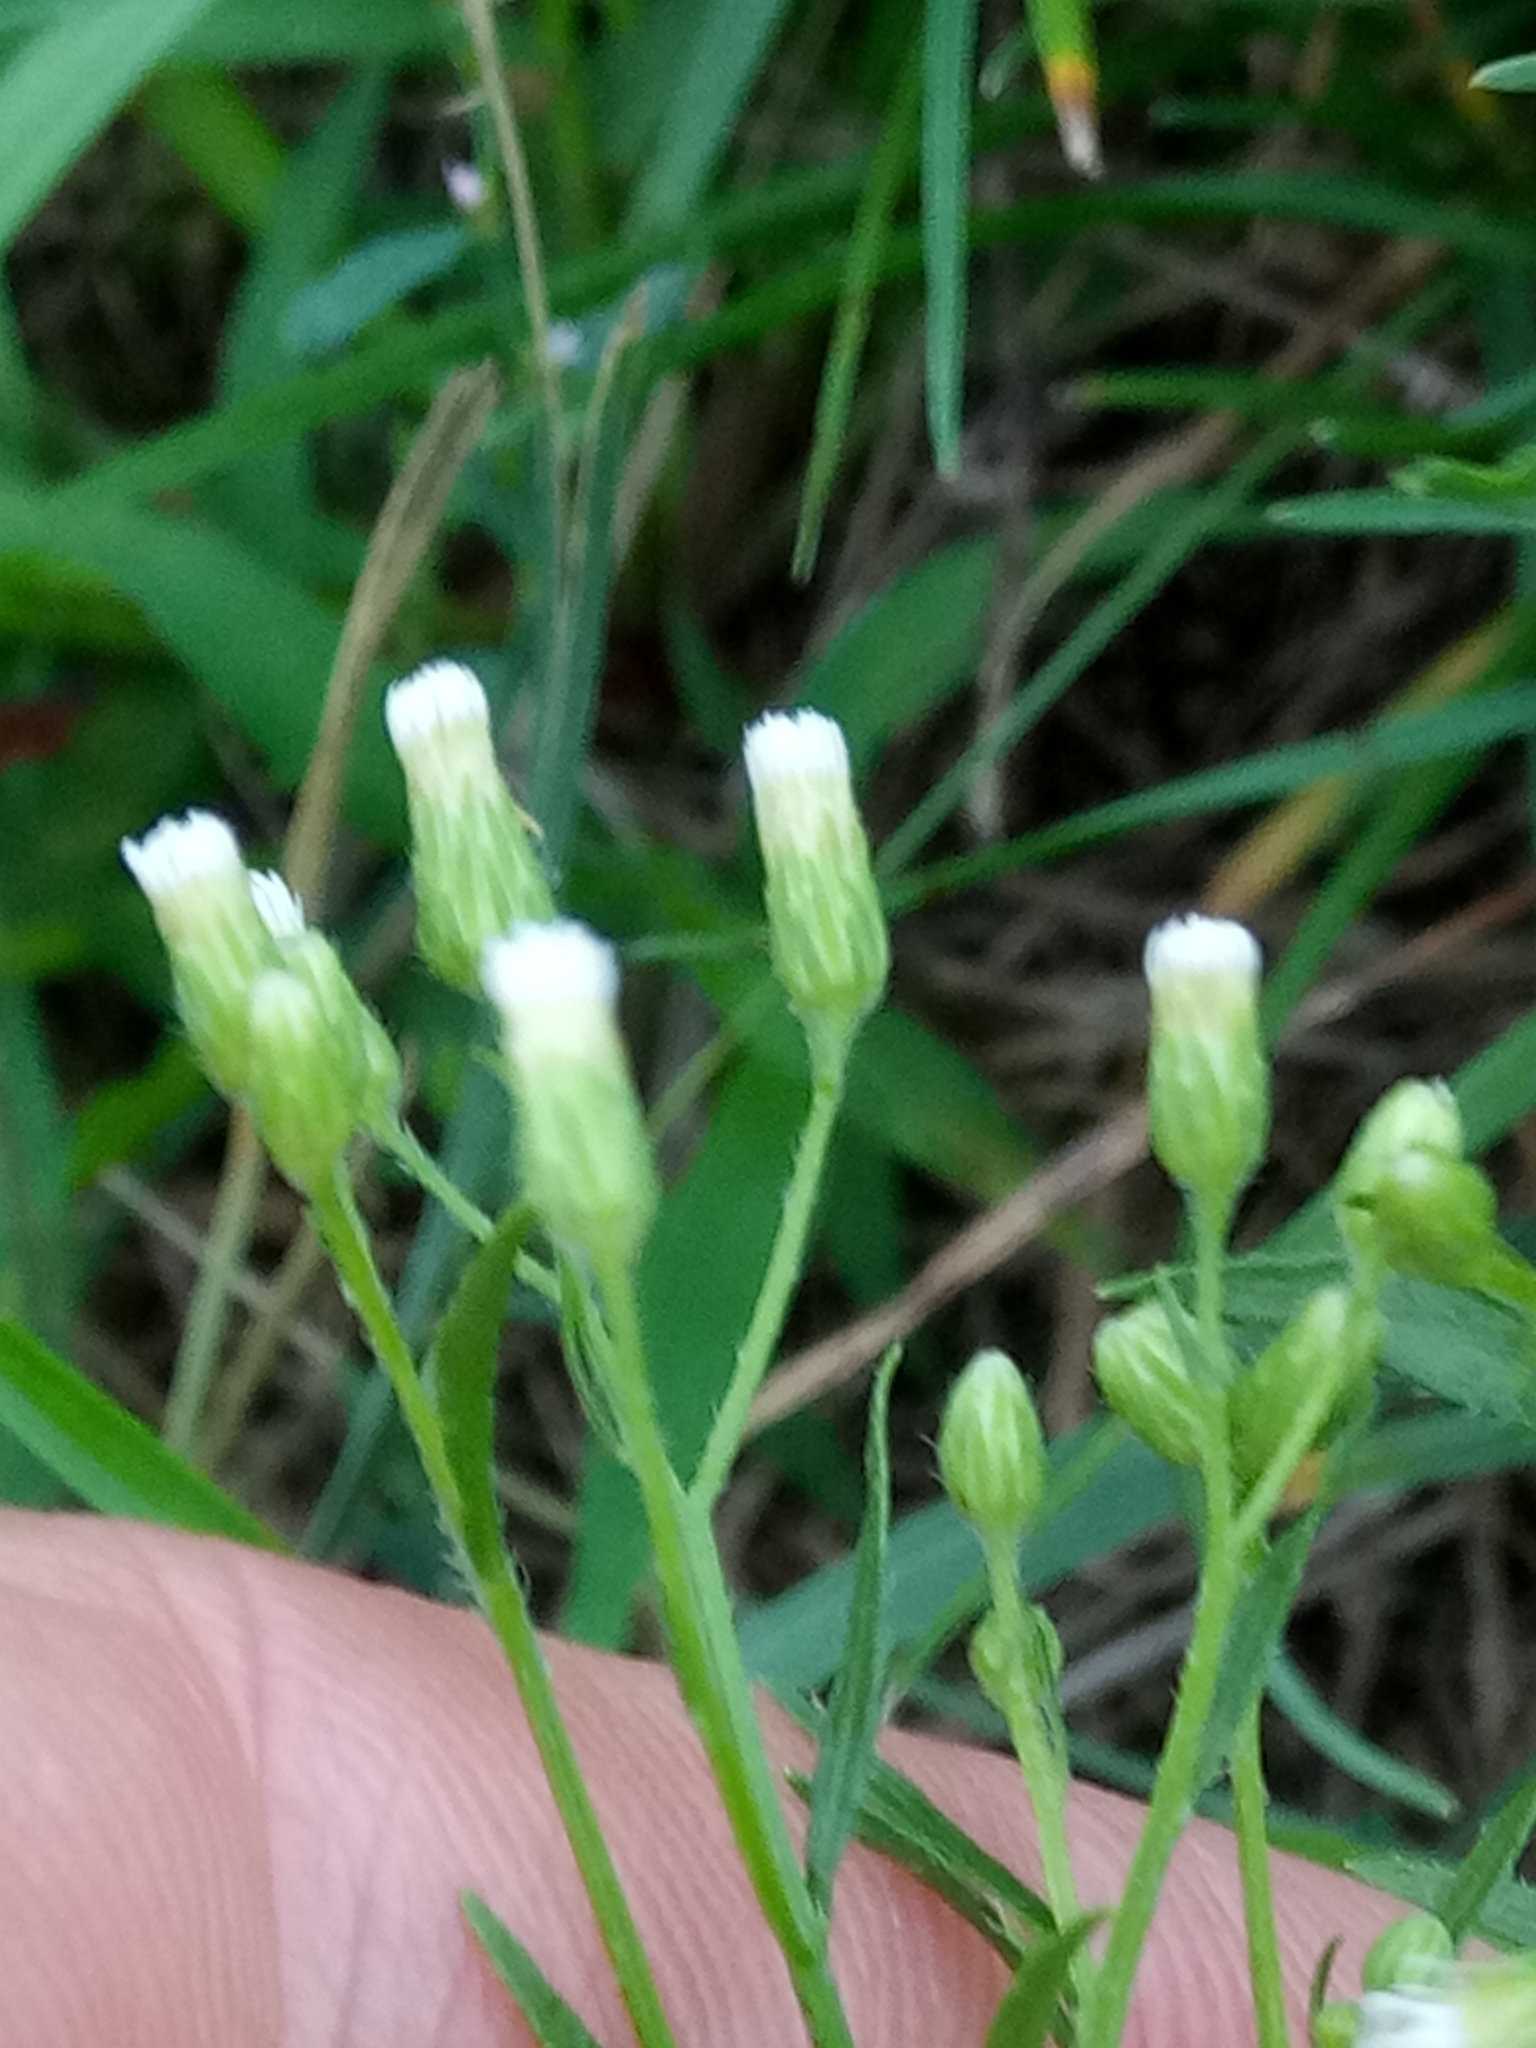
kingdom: Plantae
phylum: Tracheophyta
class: Magnoliopsida
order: Asterales
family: Asteraceae
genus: Erigeron
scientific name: Erigeron canadensis
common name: Canadian fleabane
